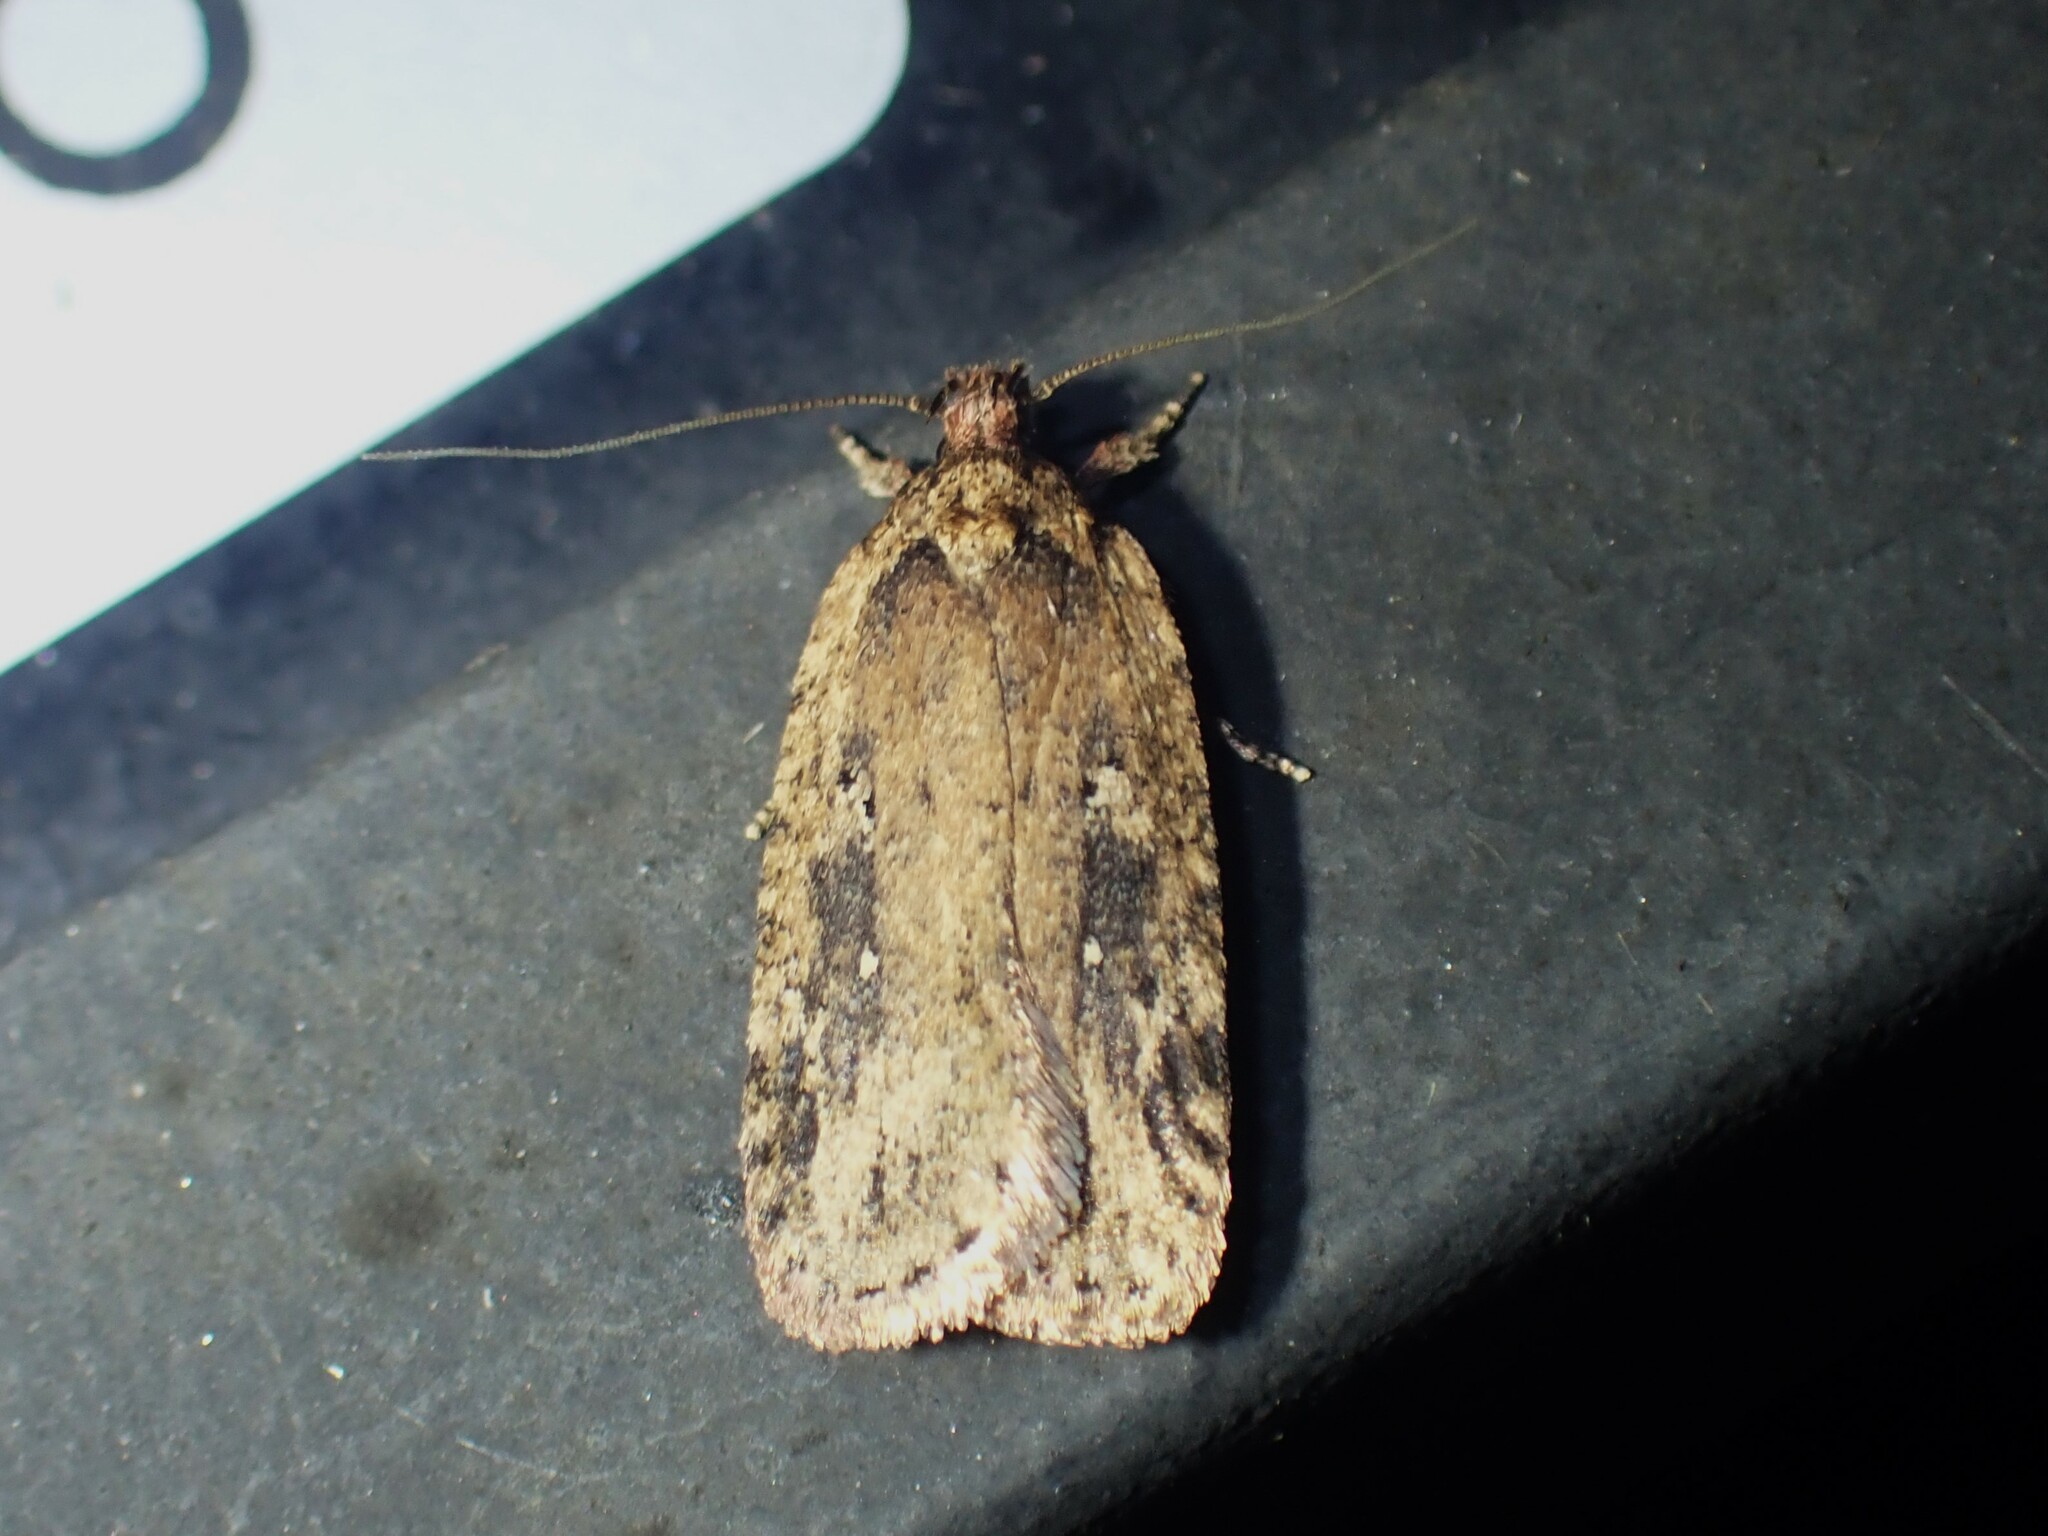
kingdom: Animalia
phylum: Arthropoda
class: Insecta
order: Lepidoptera
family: Depressariidae
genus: Agonopterix
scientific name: Agonopterix pulvipennella
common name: Goldenrod leafffolder
